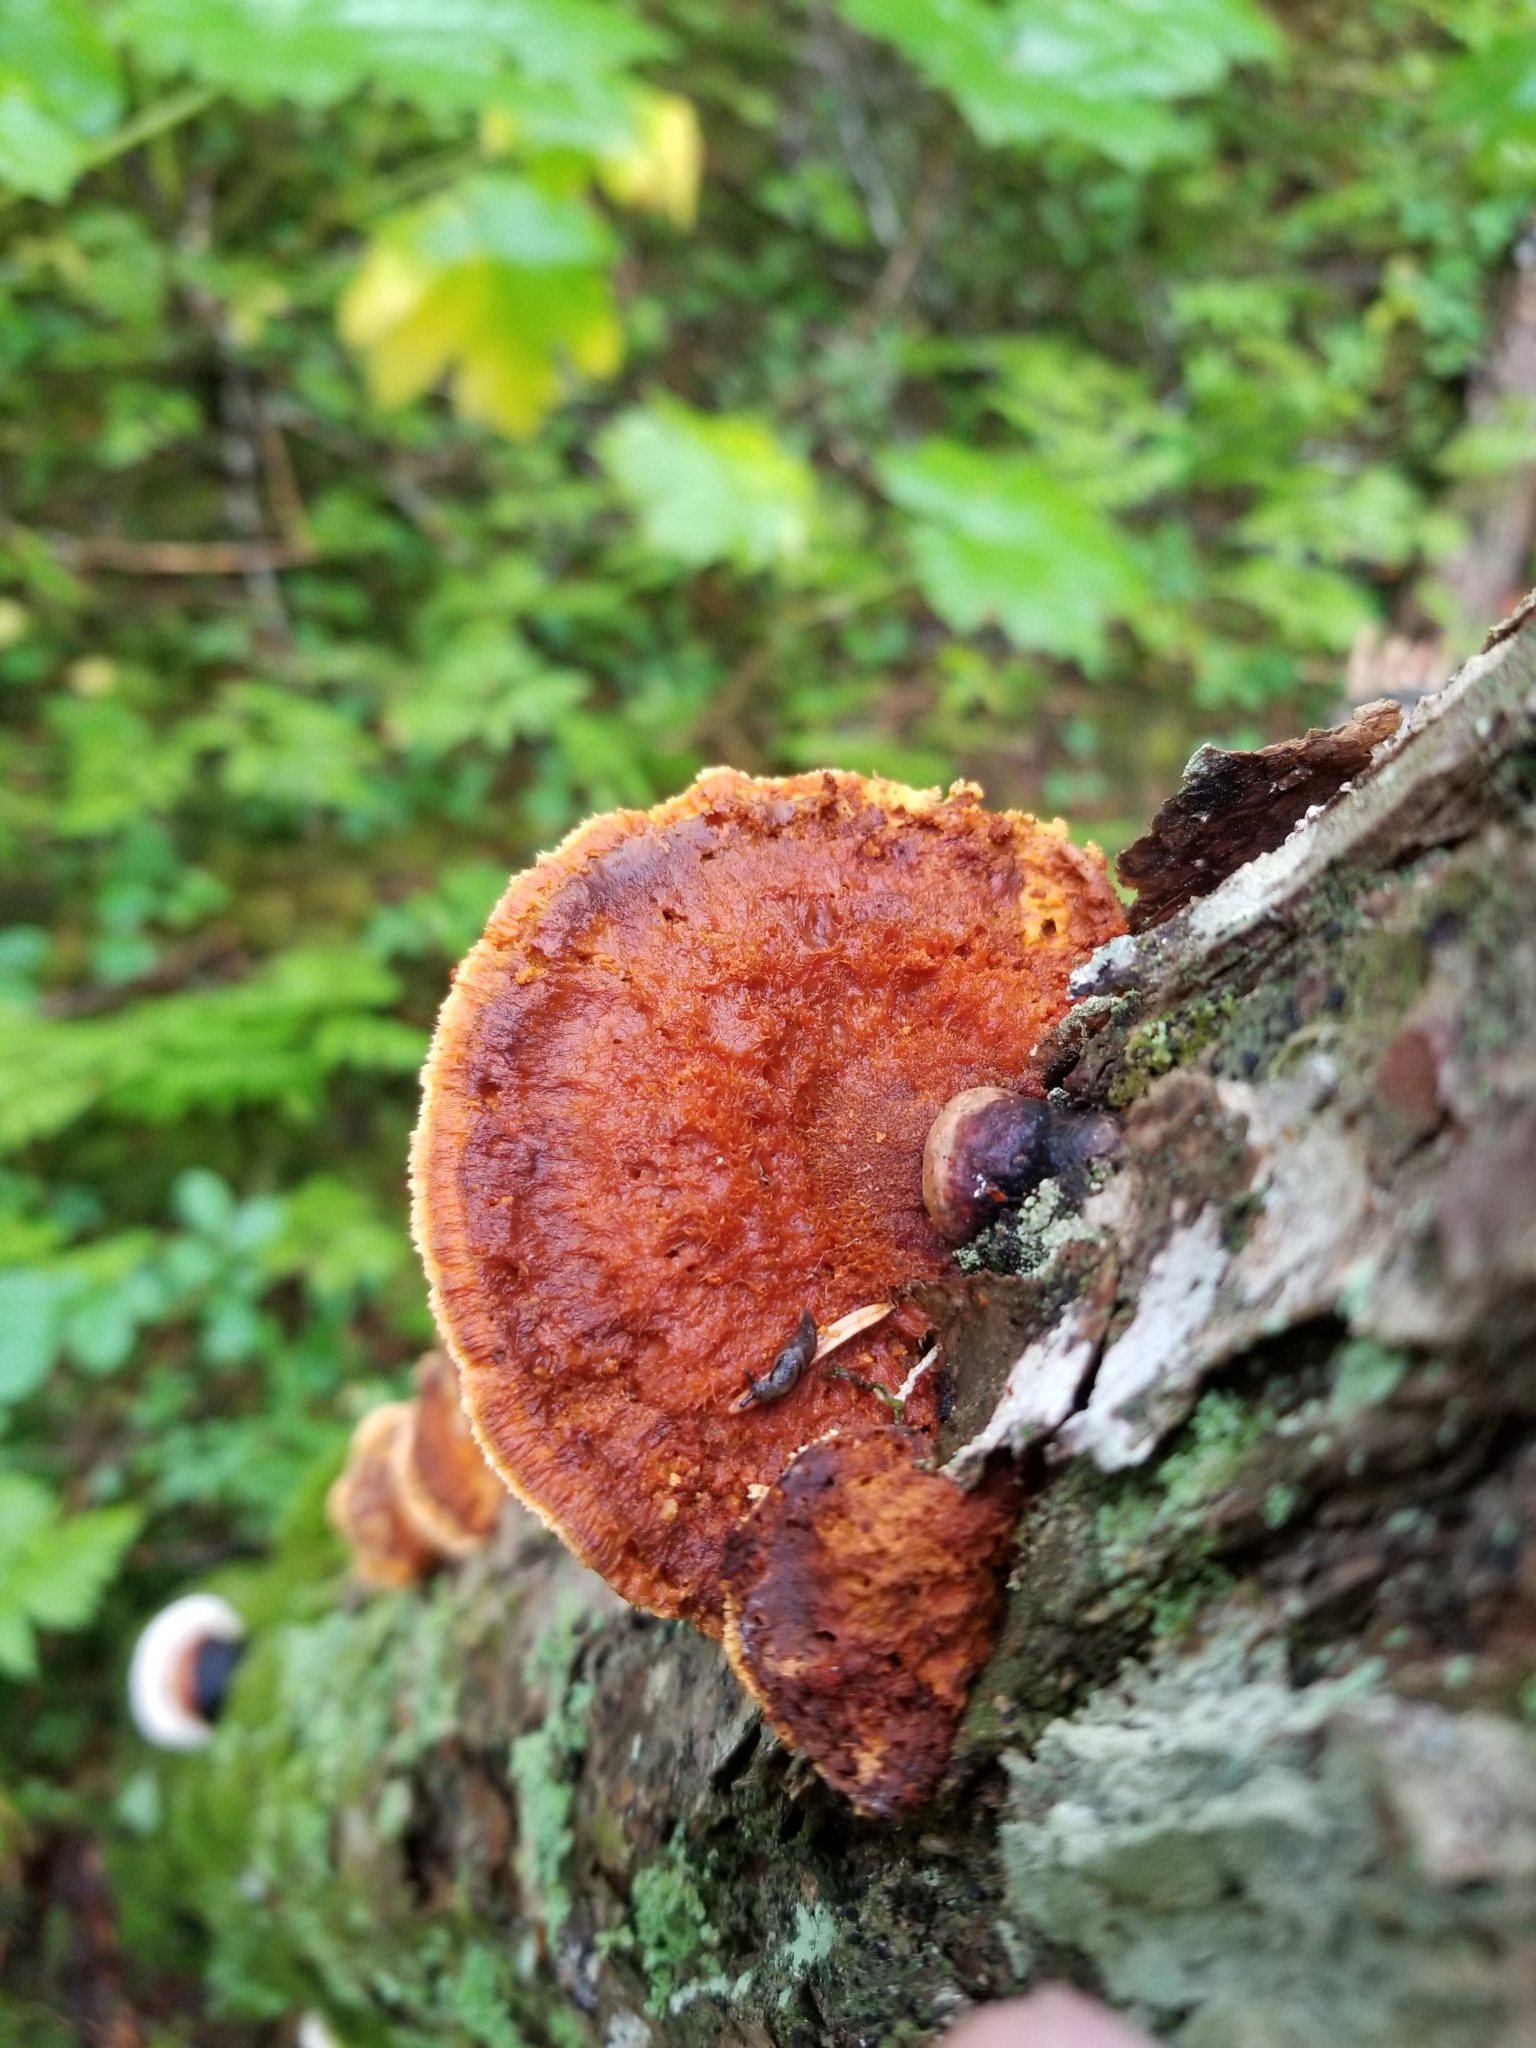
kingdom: Fungi
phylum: Basidiomycota
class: Agaricomycetes
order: Polyporales
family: Pycnoporellaceae
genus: Pycnoporellus
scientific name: Pycnoporellus fulgens
